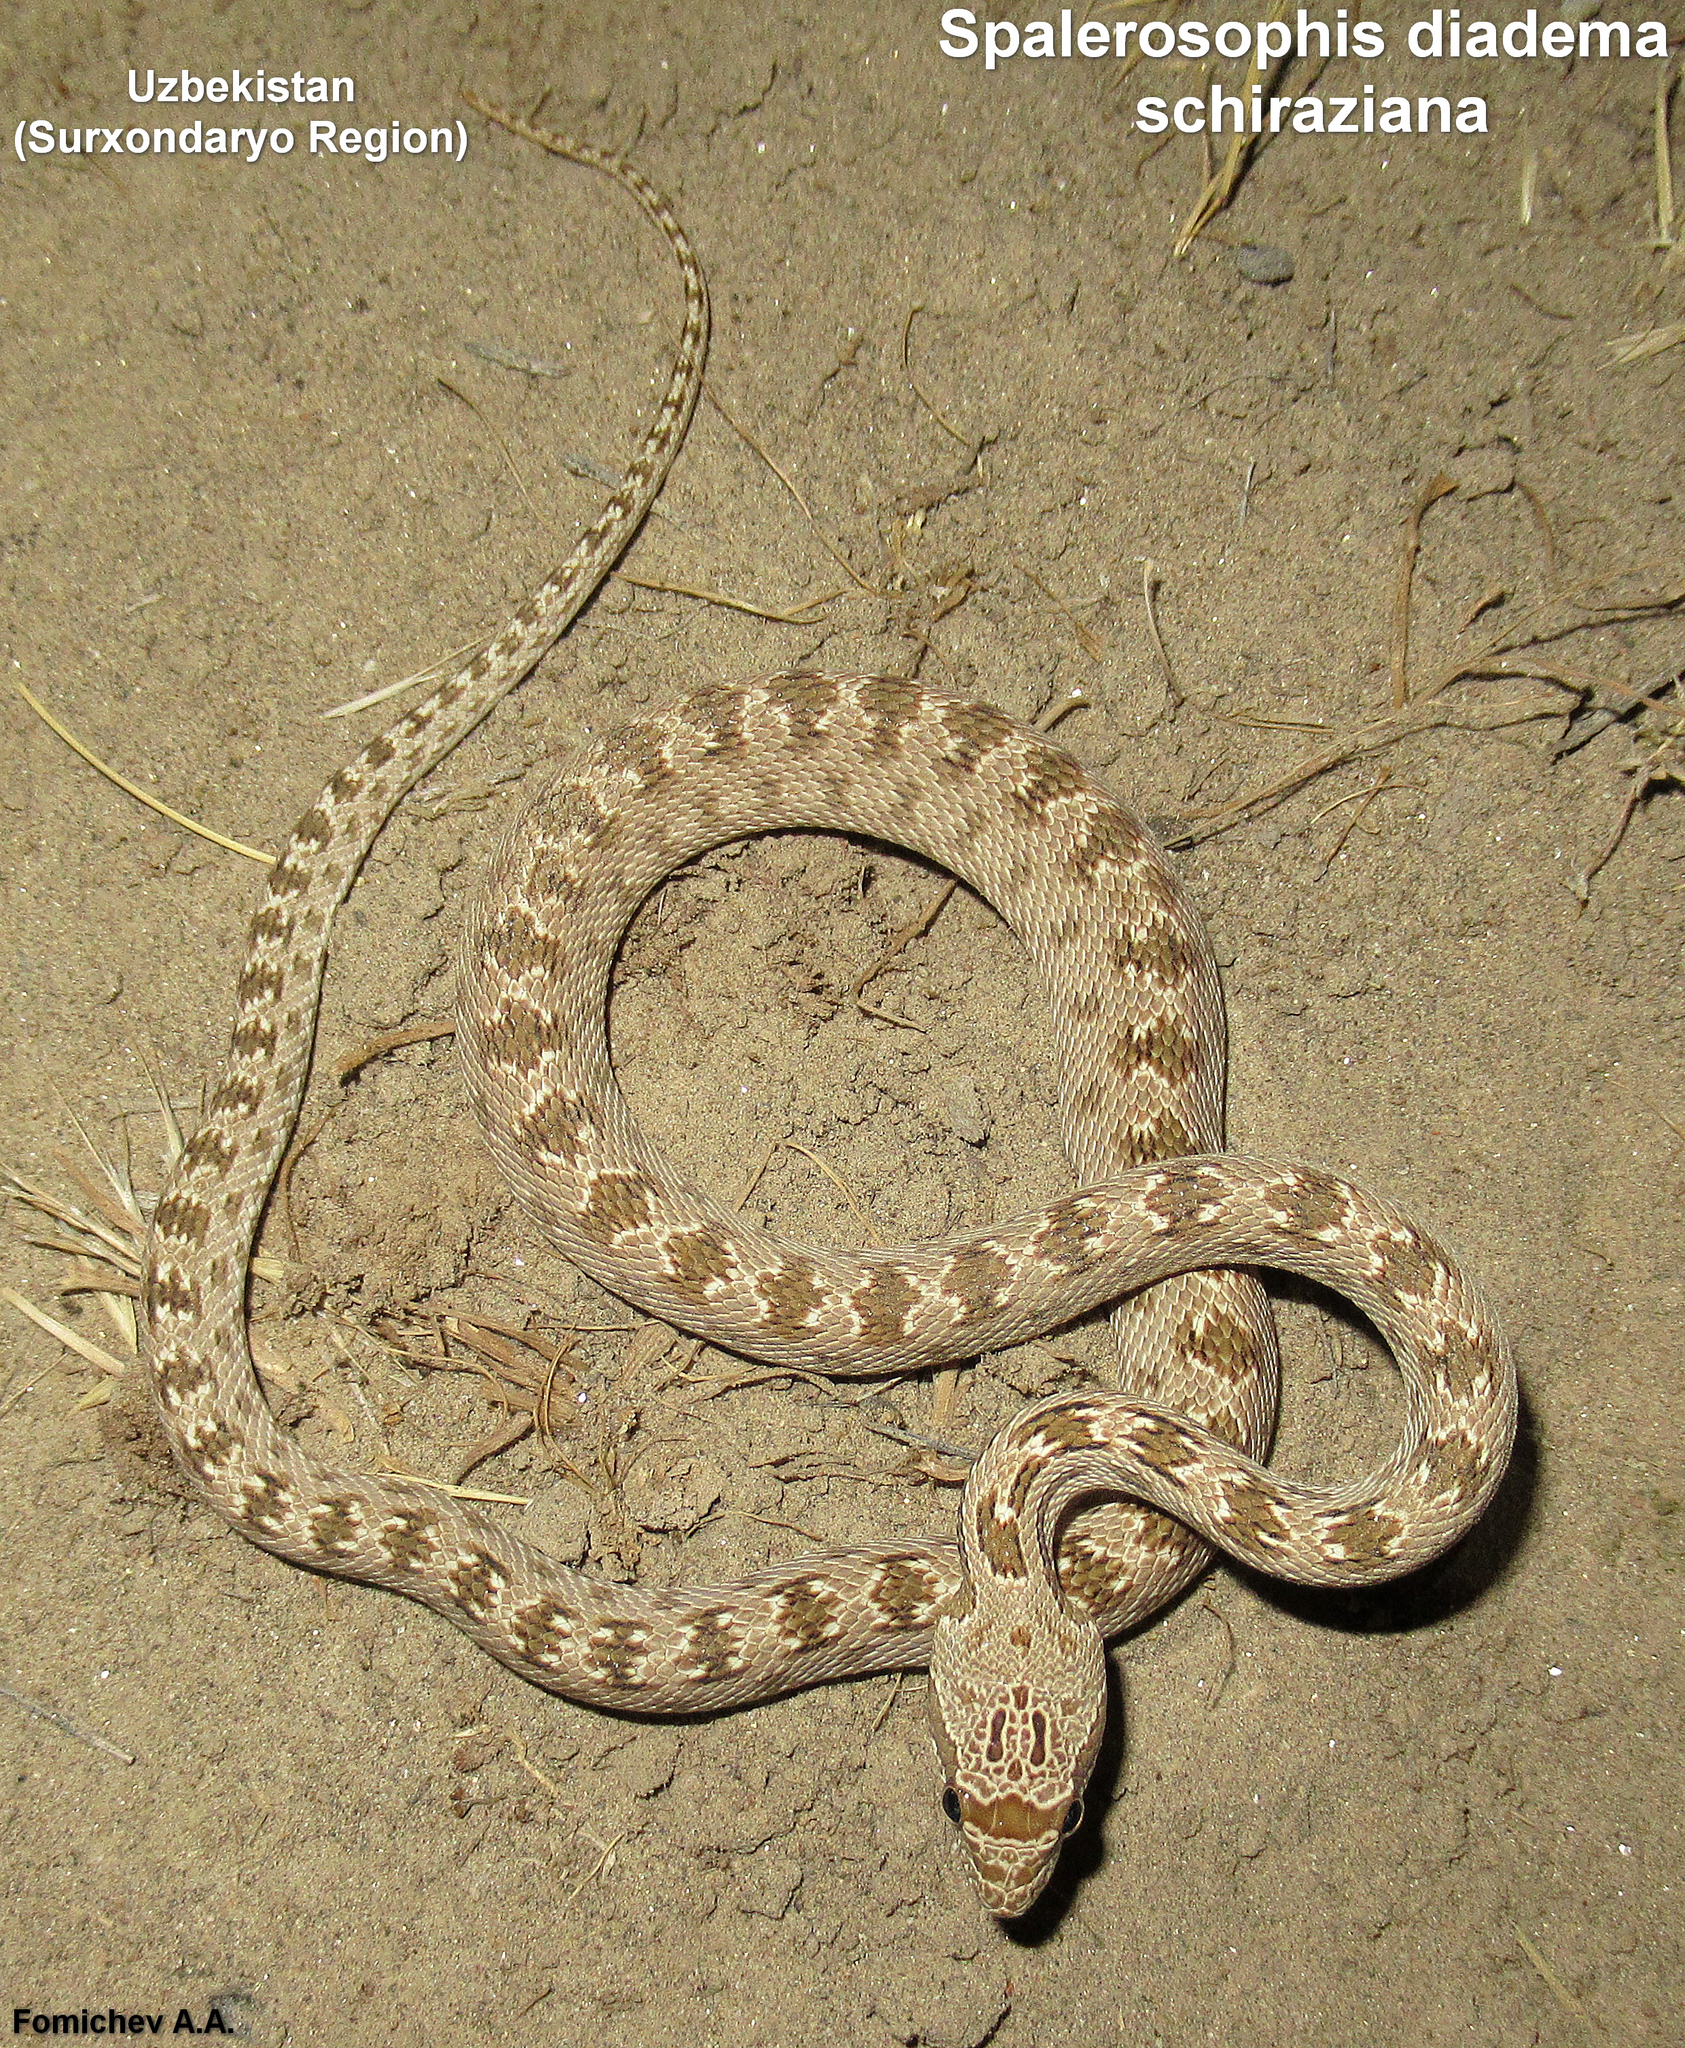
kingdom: Animalia
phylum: Chordata
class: Squamata
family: Colubridae
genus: Spalerosophis
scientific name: Spalerosophis diadema
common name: Diadem snake
